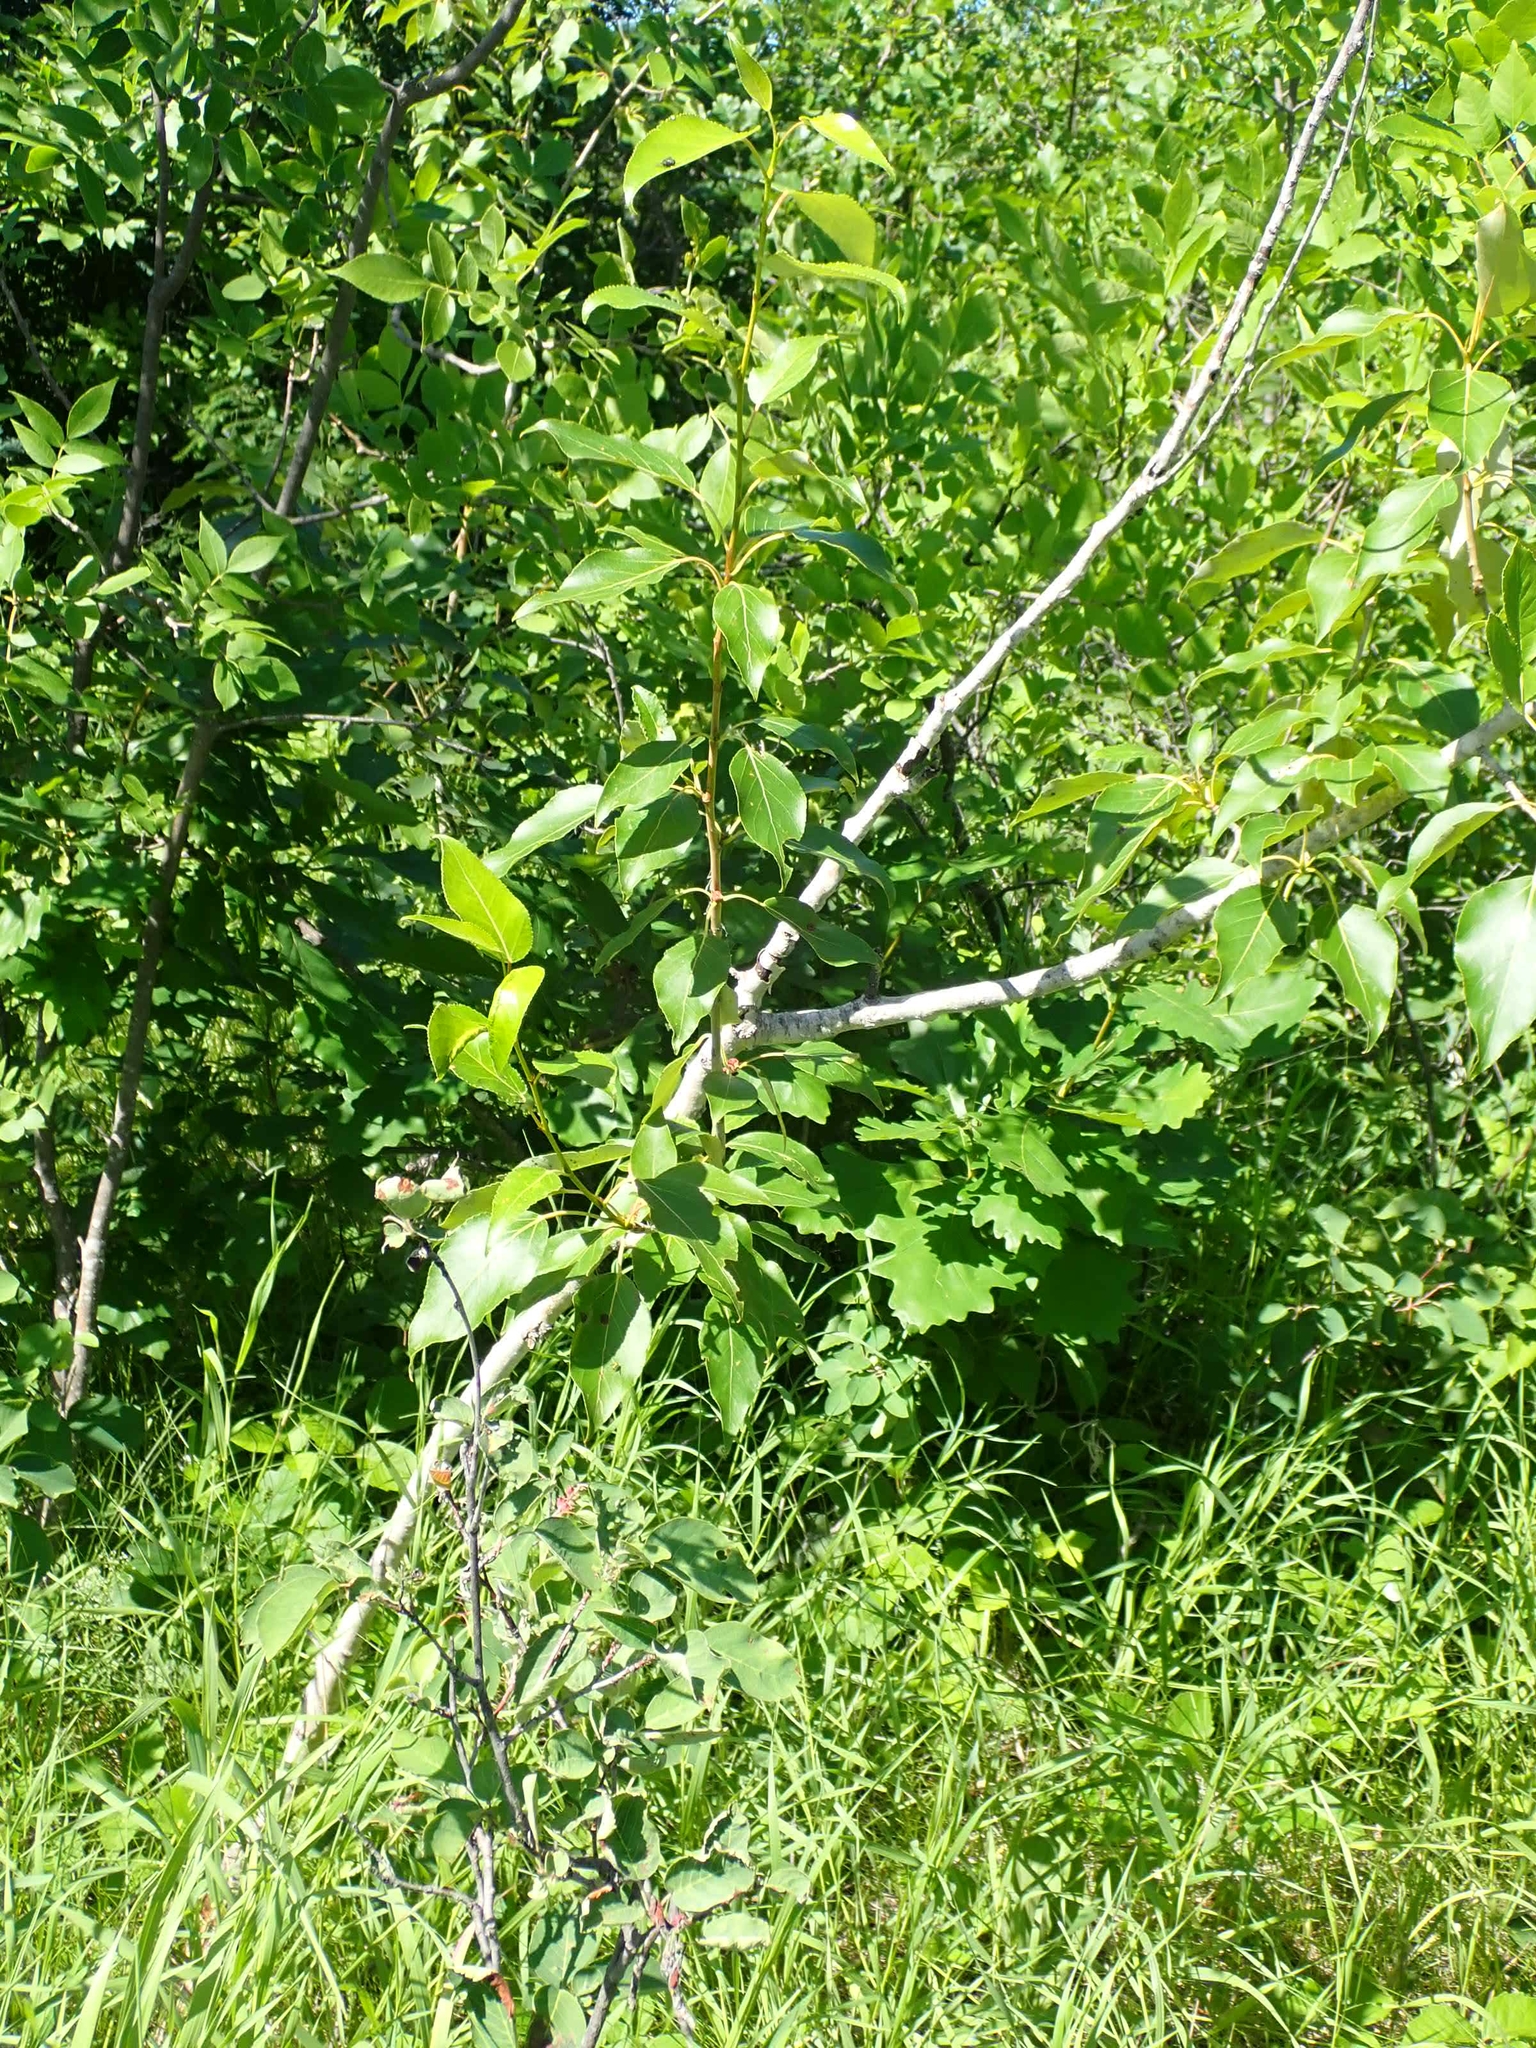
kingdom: Plantae
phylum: Tracheophyta
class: Magnoliopsida
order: Malpighiales
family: Salicaceae
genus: Populus
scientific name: Populus balsamifera
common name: Balsam poplar
